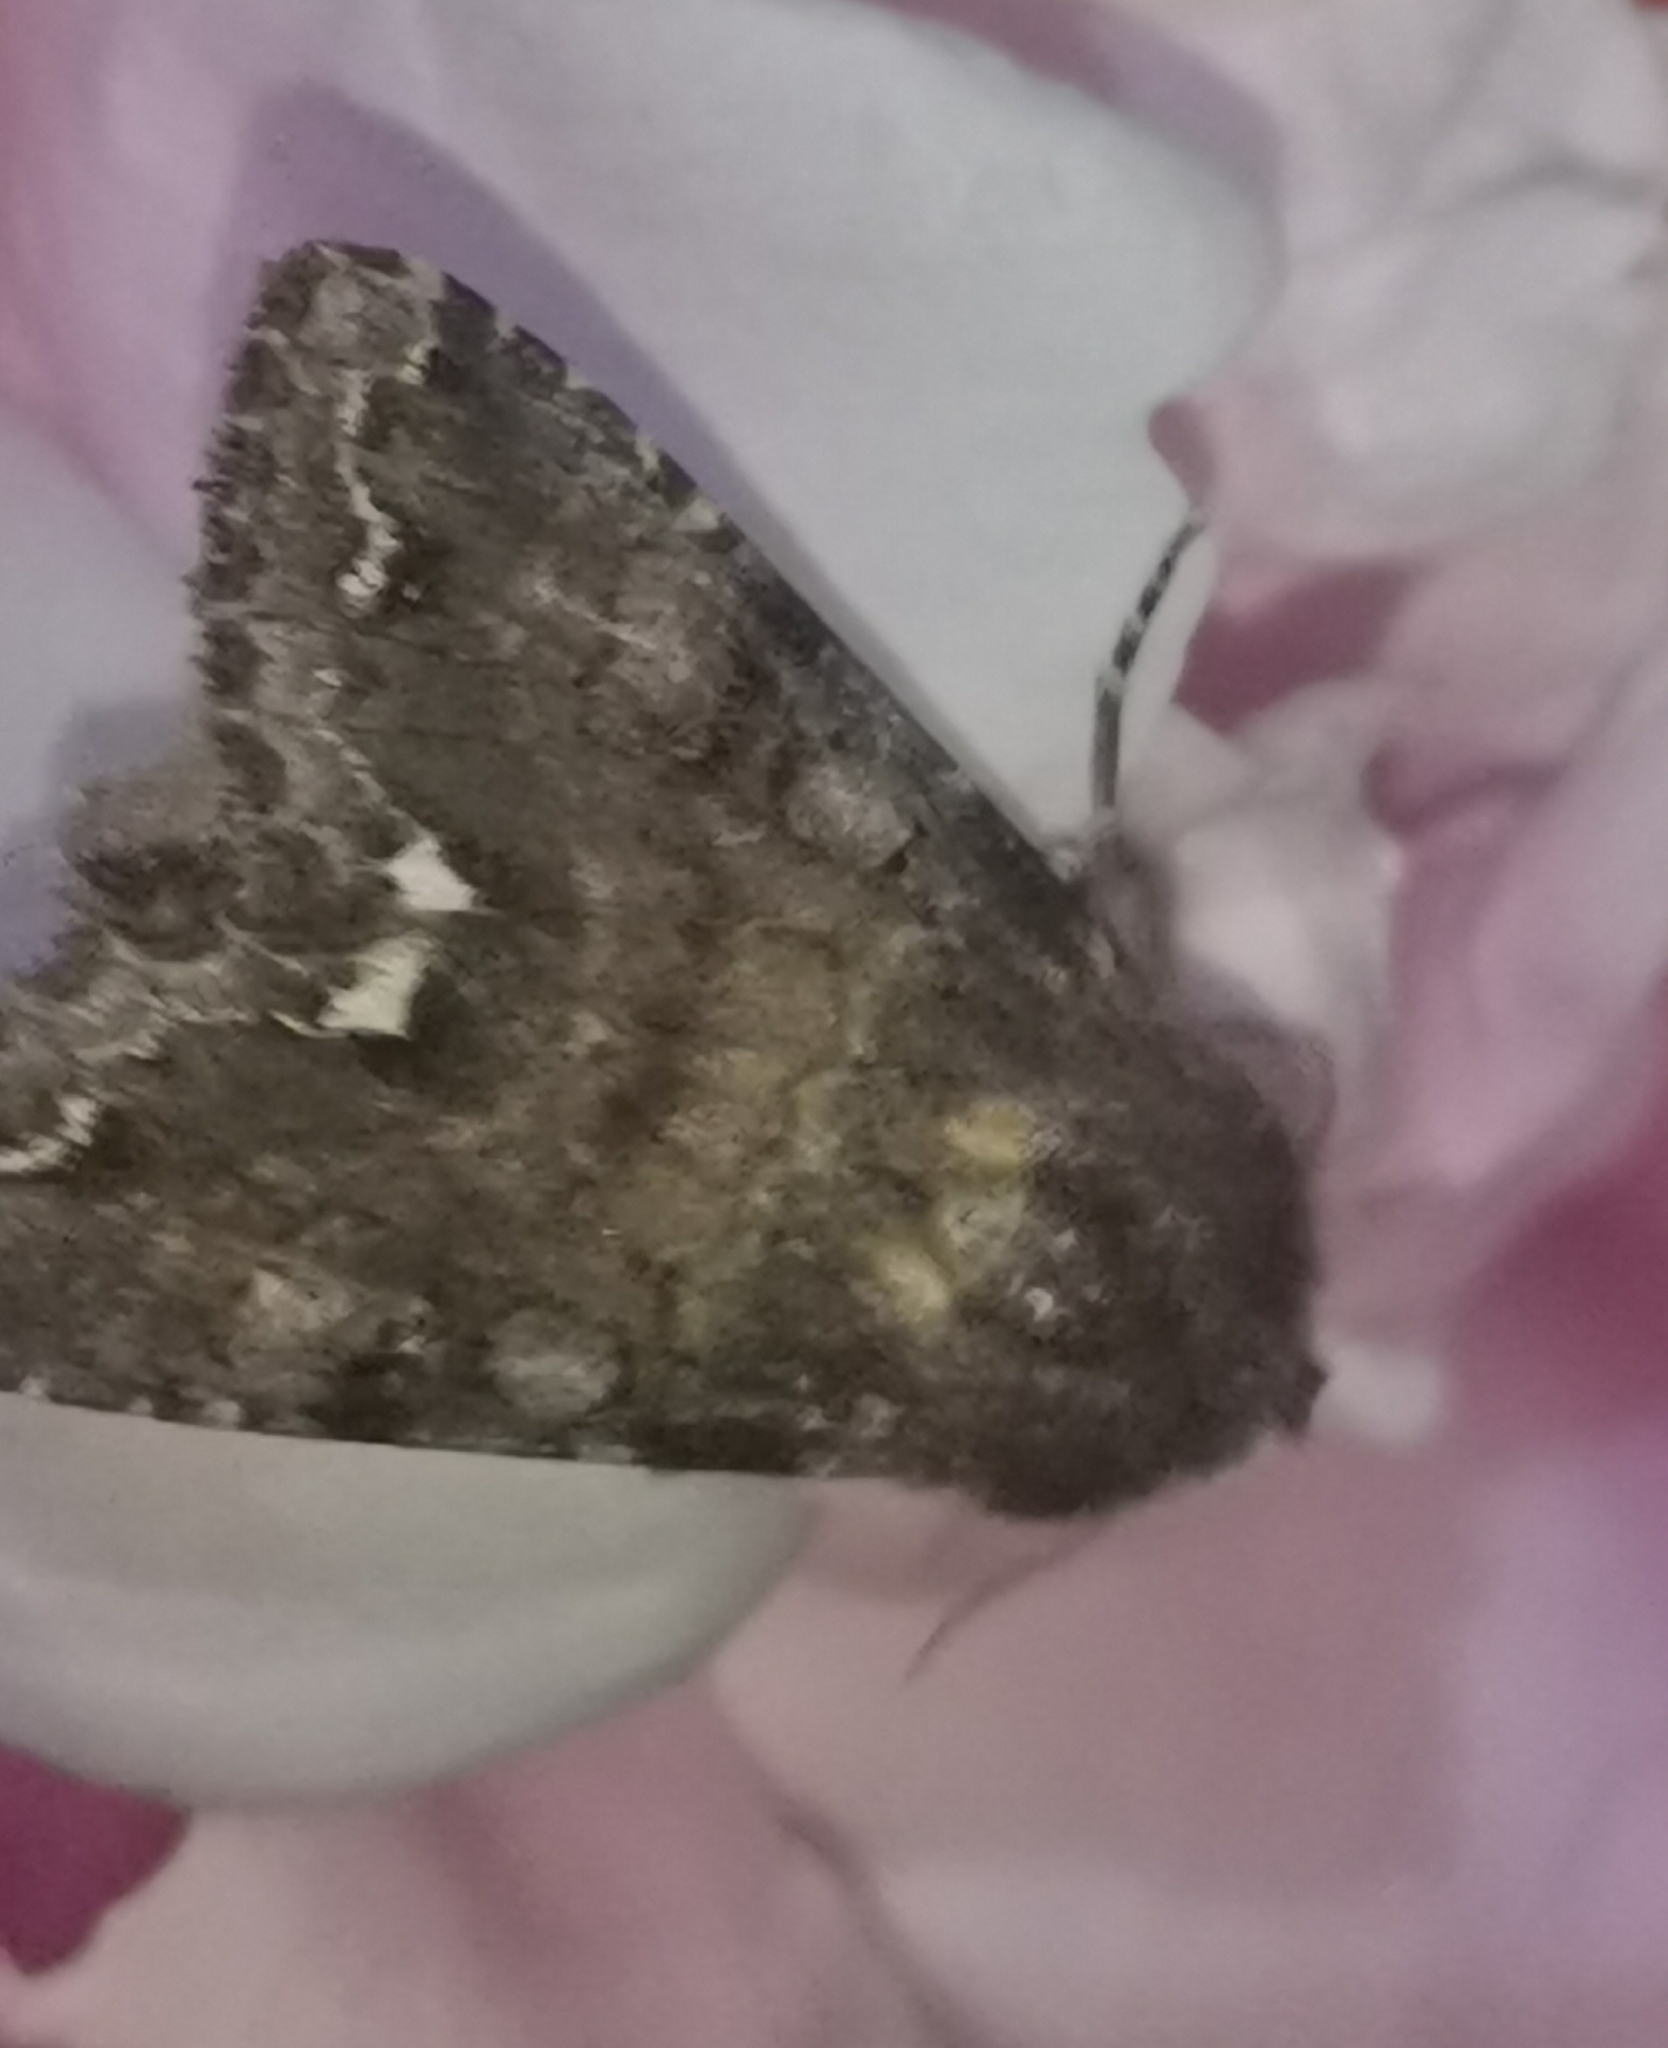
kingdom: Animalia
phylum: Arthropoda
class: Insecta
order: Lepidoptera
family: Noctuidae
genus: Ceramica
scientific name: Ceramica pisi
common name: Broom moth
